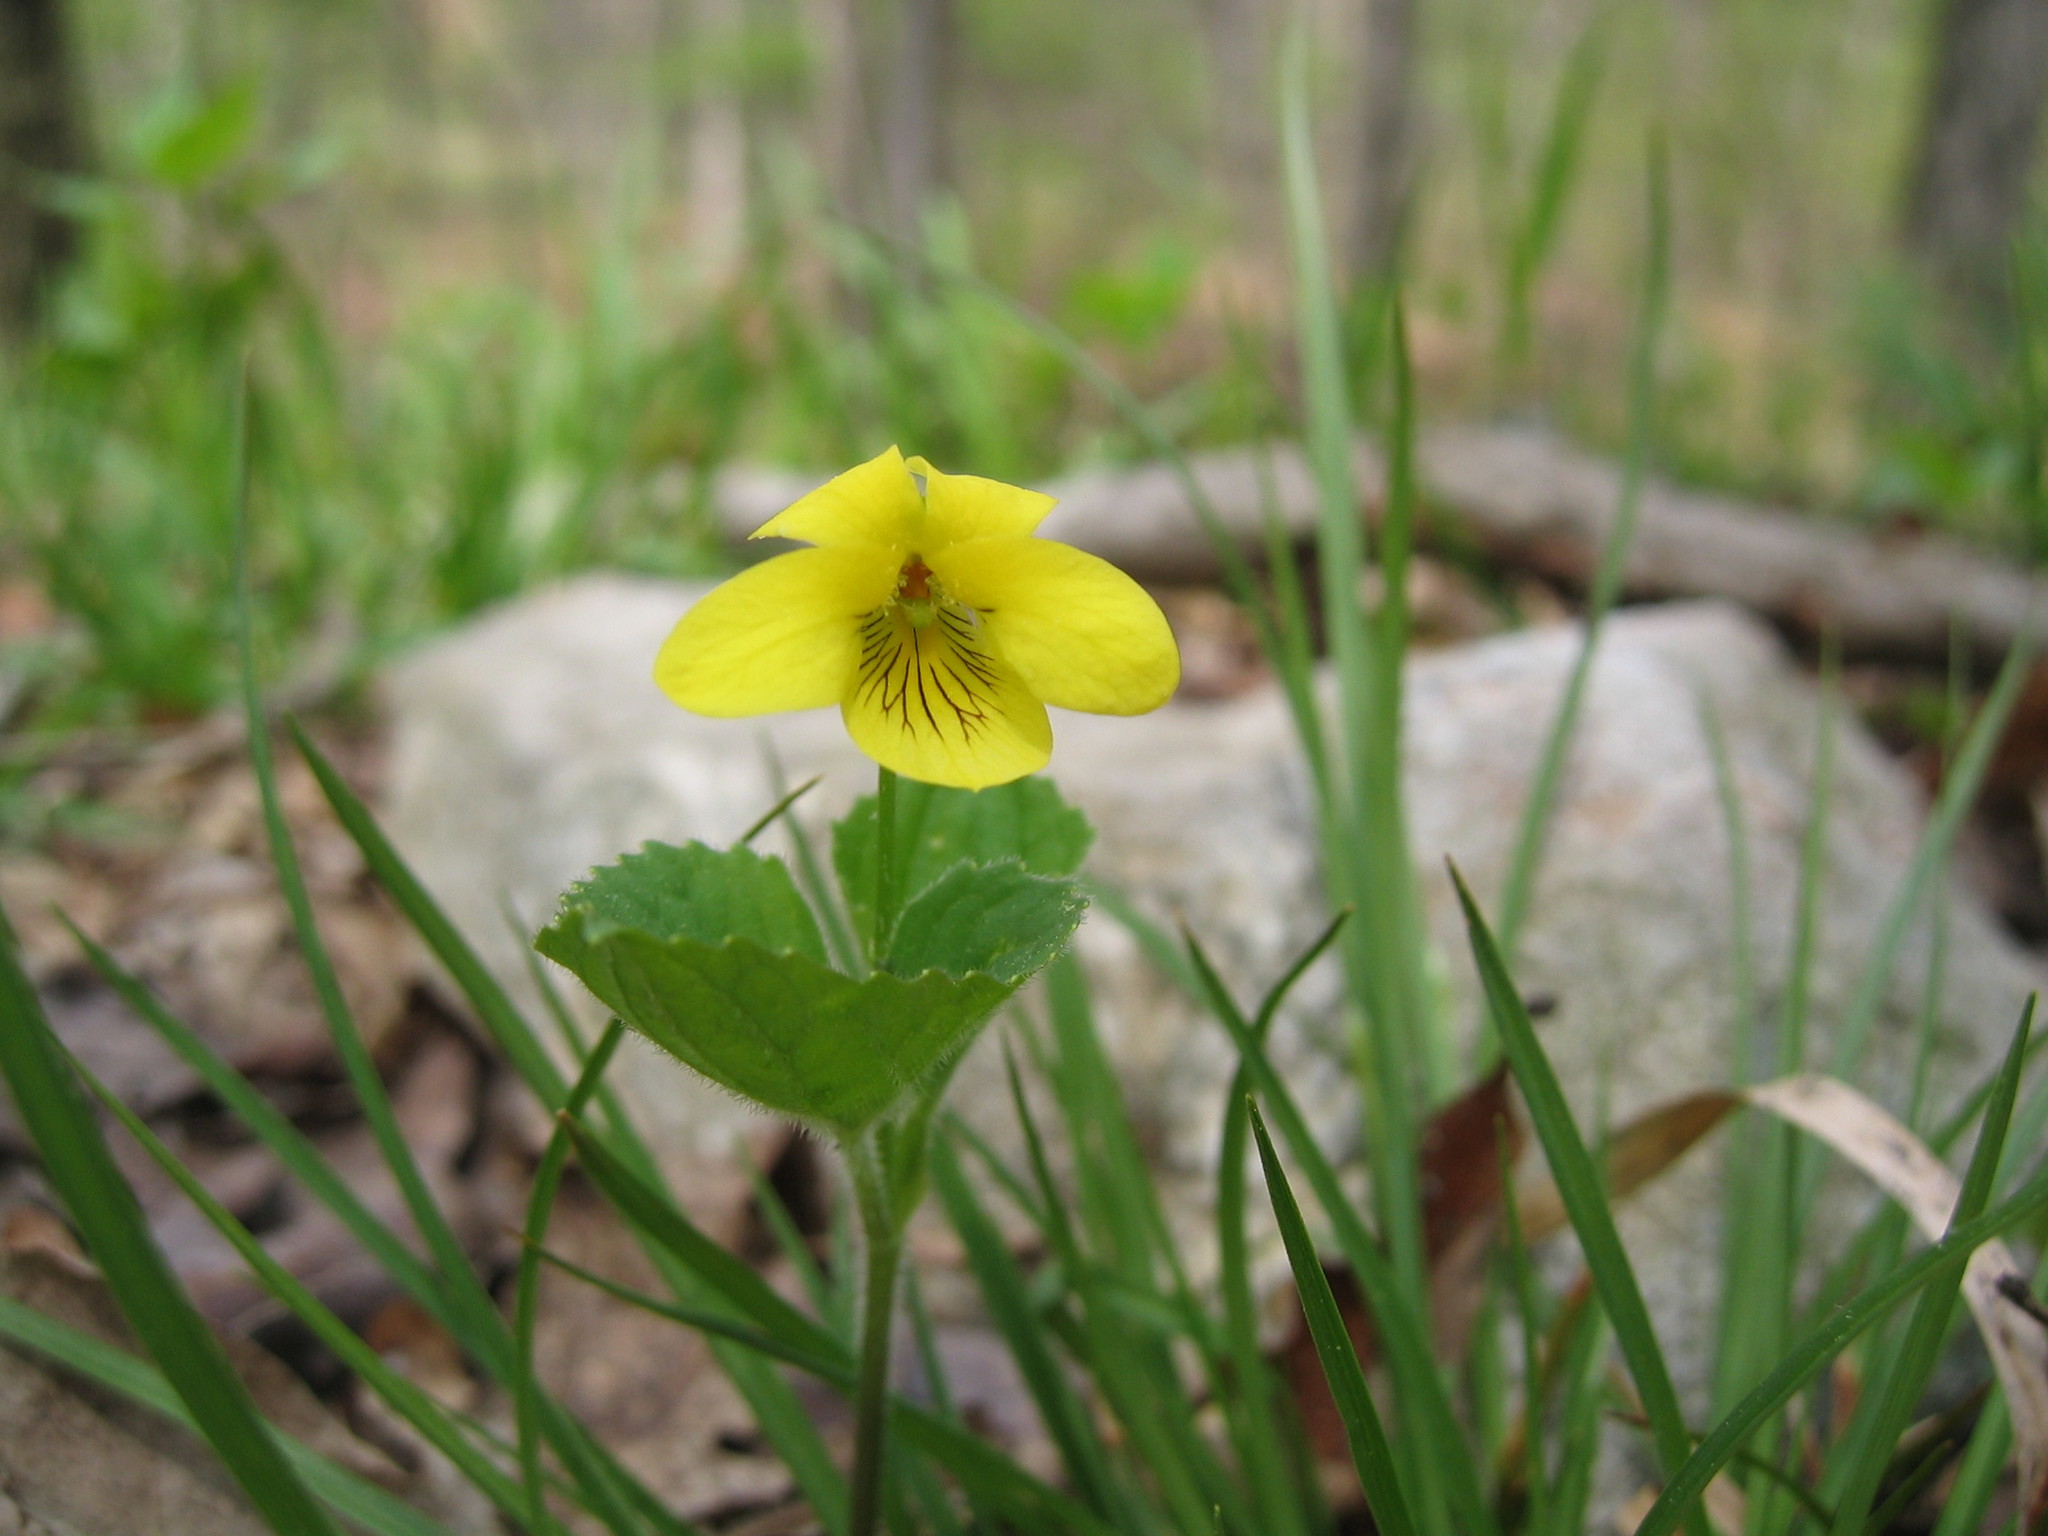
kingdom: Plantae
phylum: Tracheophyta
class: Magnoliopsida
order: Malpighiales
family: Violaceae
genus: Viola
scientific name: Viola eriocarpa
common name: Smooth yellow violet
